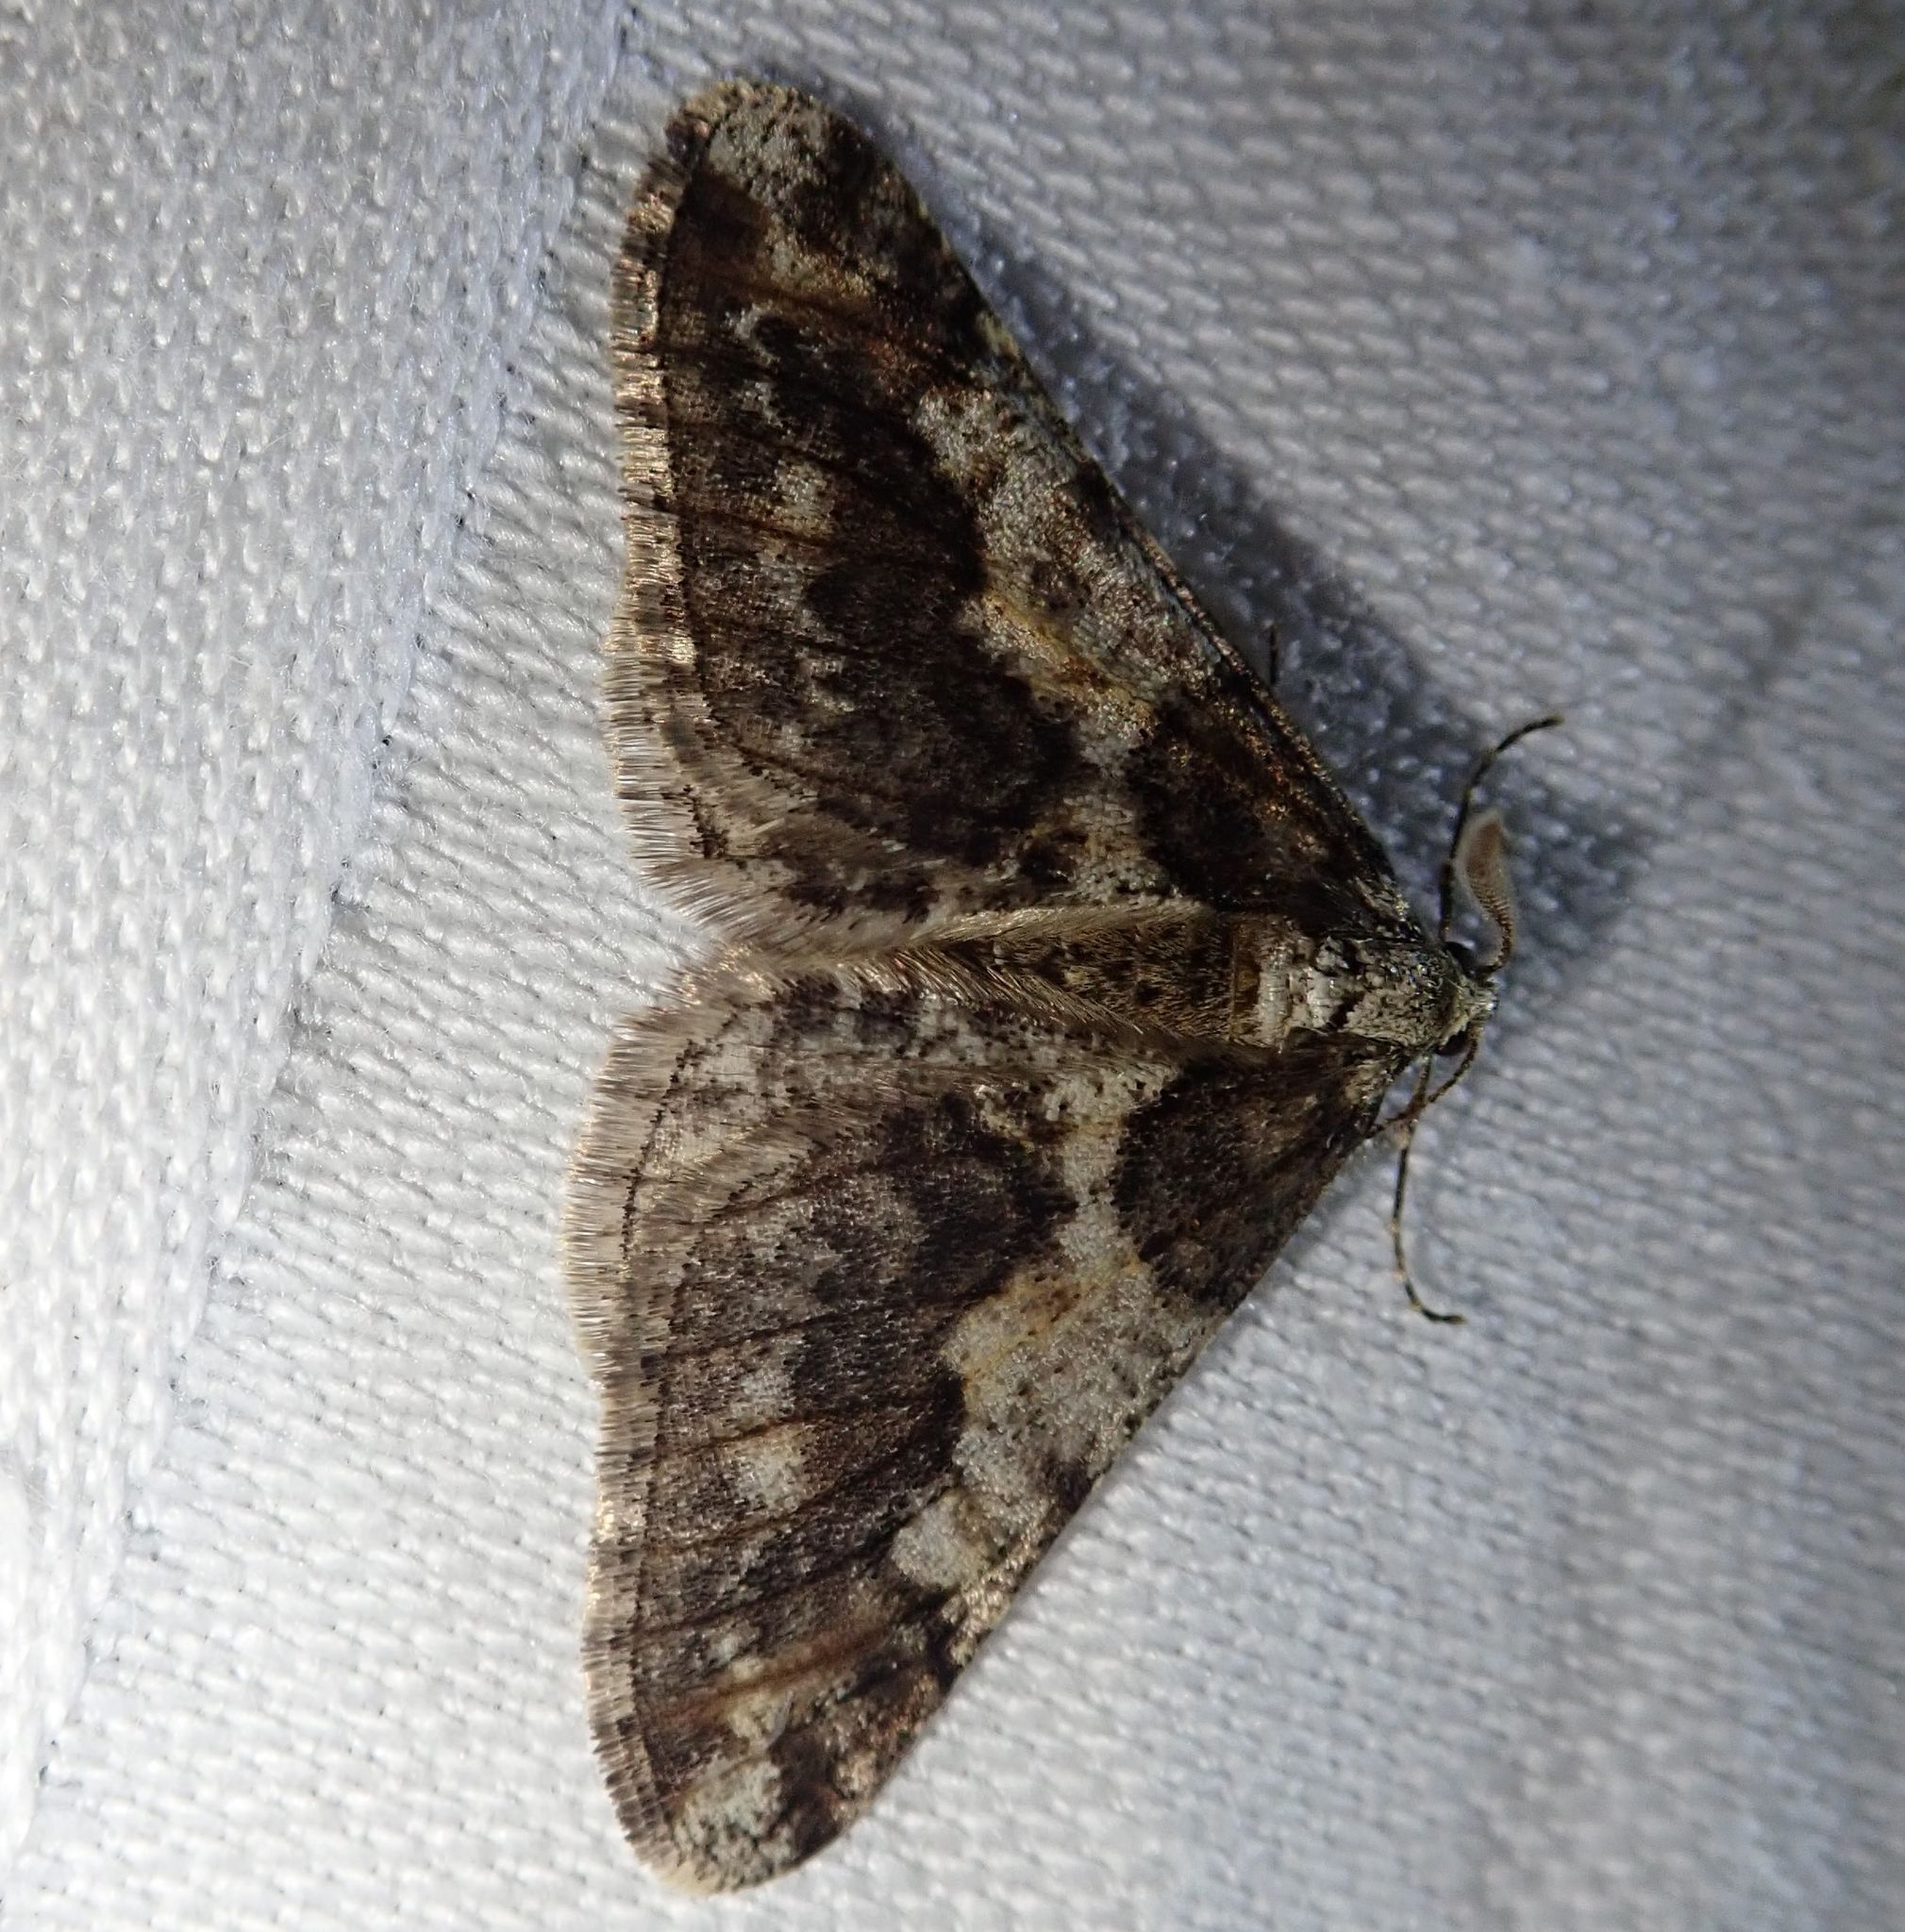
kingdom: Animalia
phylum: Arthropoda
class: Insecta
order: Lepidoptera
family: Geometridae
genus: Agriopis
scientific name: Agriopis leucophaearia
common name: Spring usher
